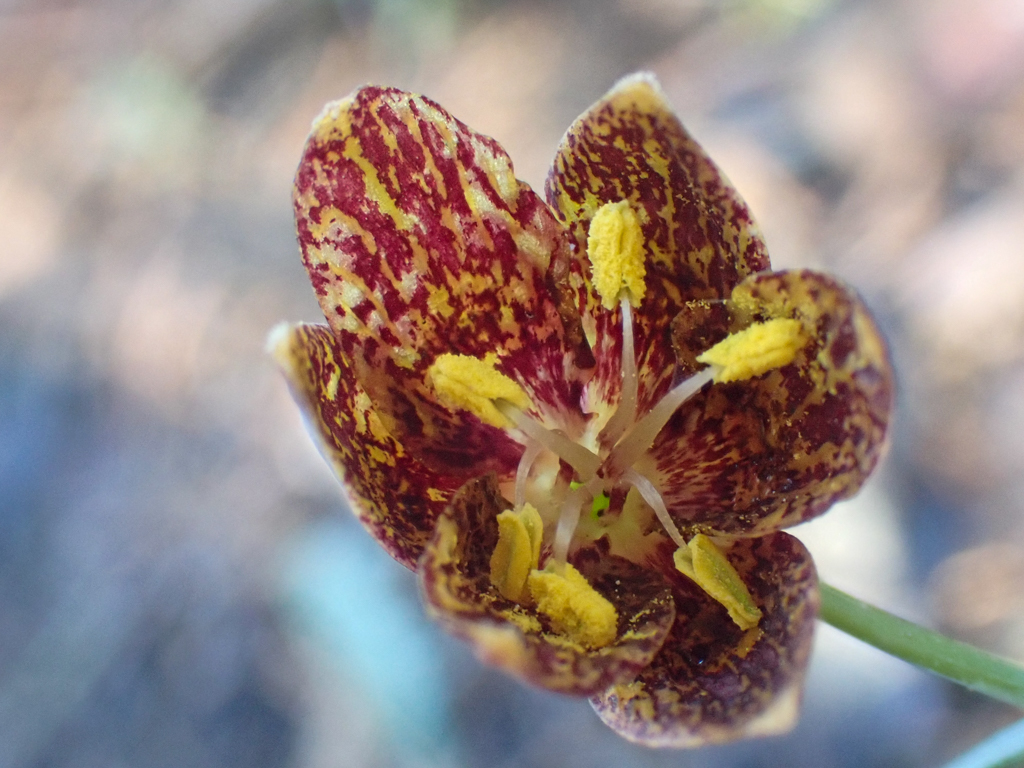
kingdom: Plantae
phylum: Tracheophyta
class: Liliopsida
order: Liliales
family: Liliaceae
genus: Fritillaria
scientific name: Fritillaria atropurpurea
